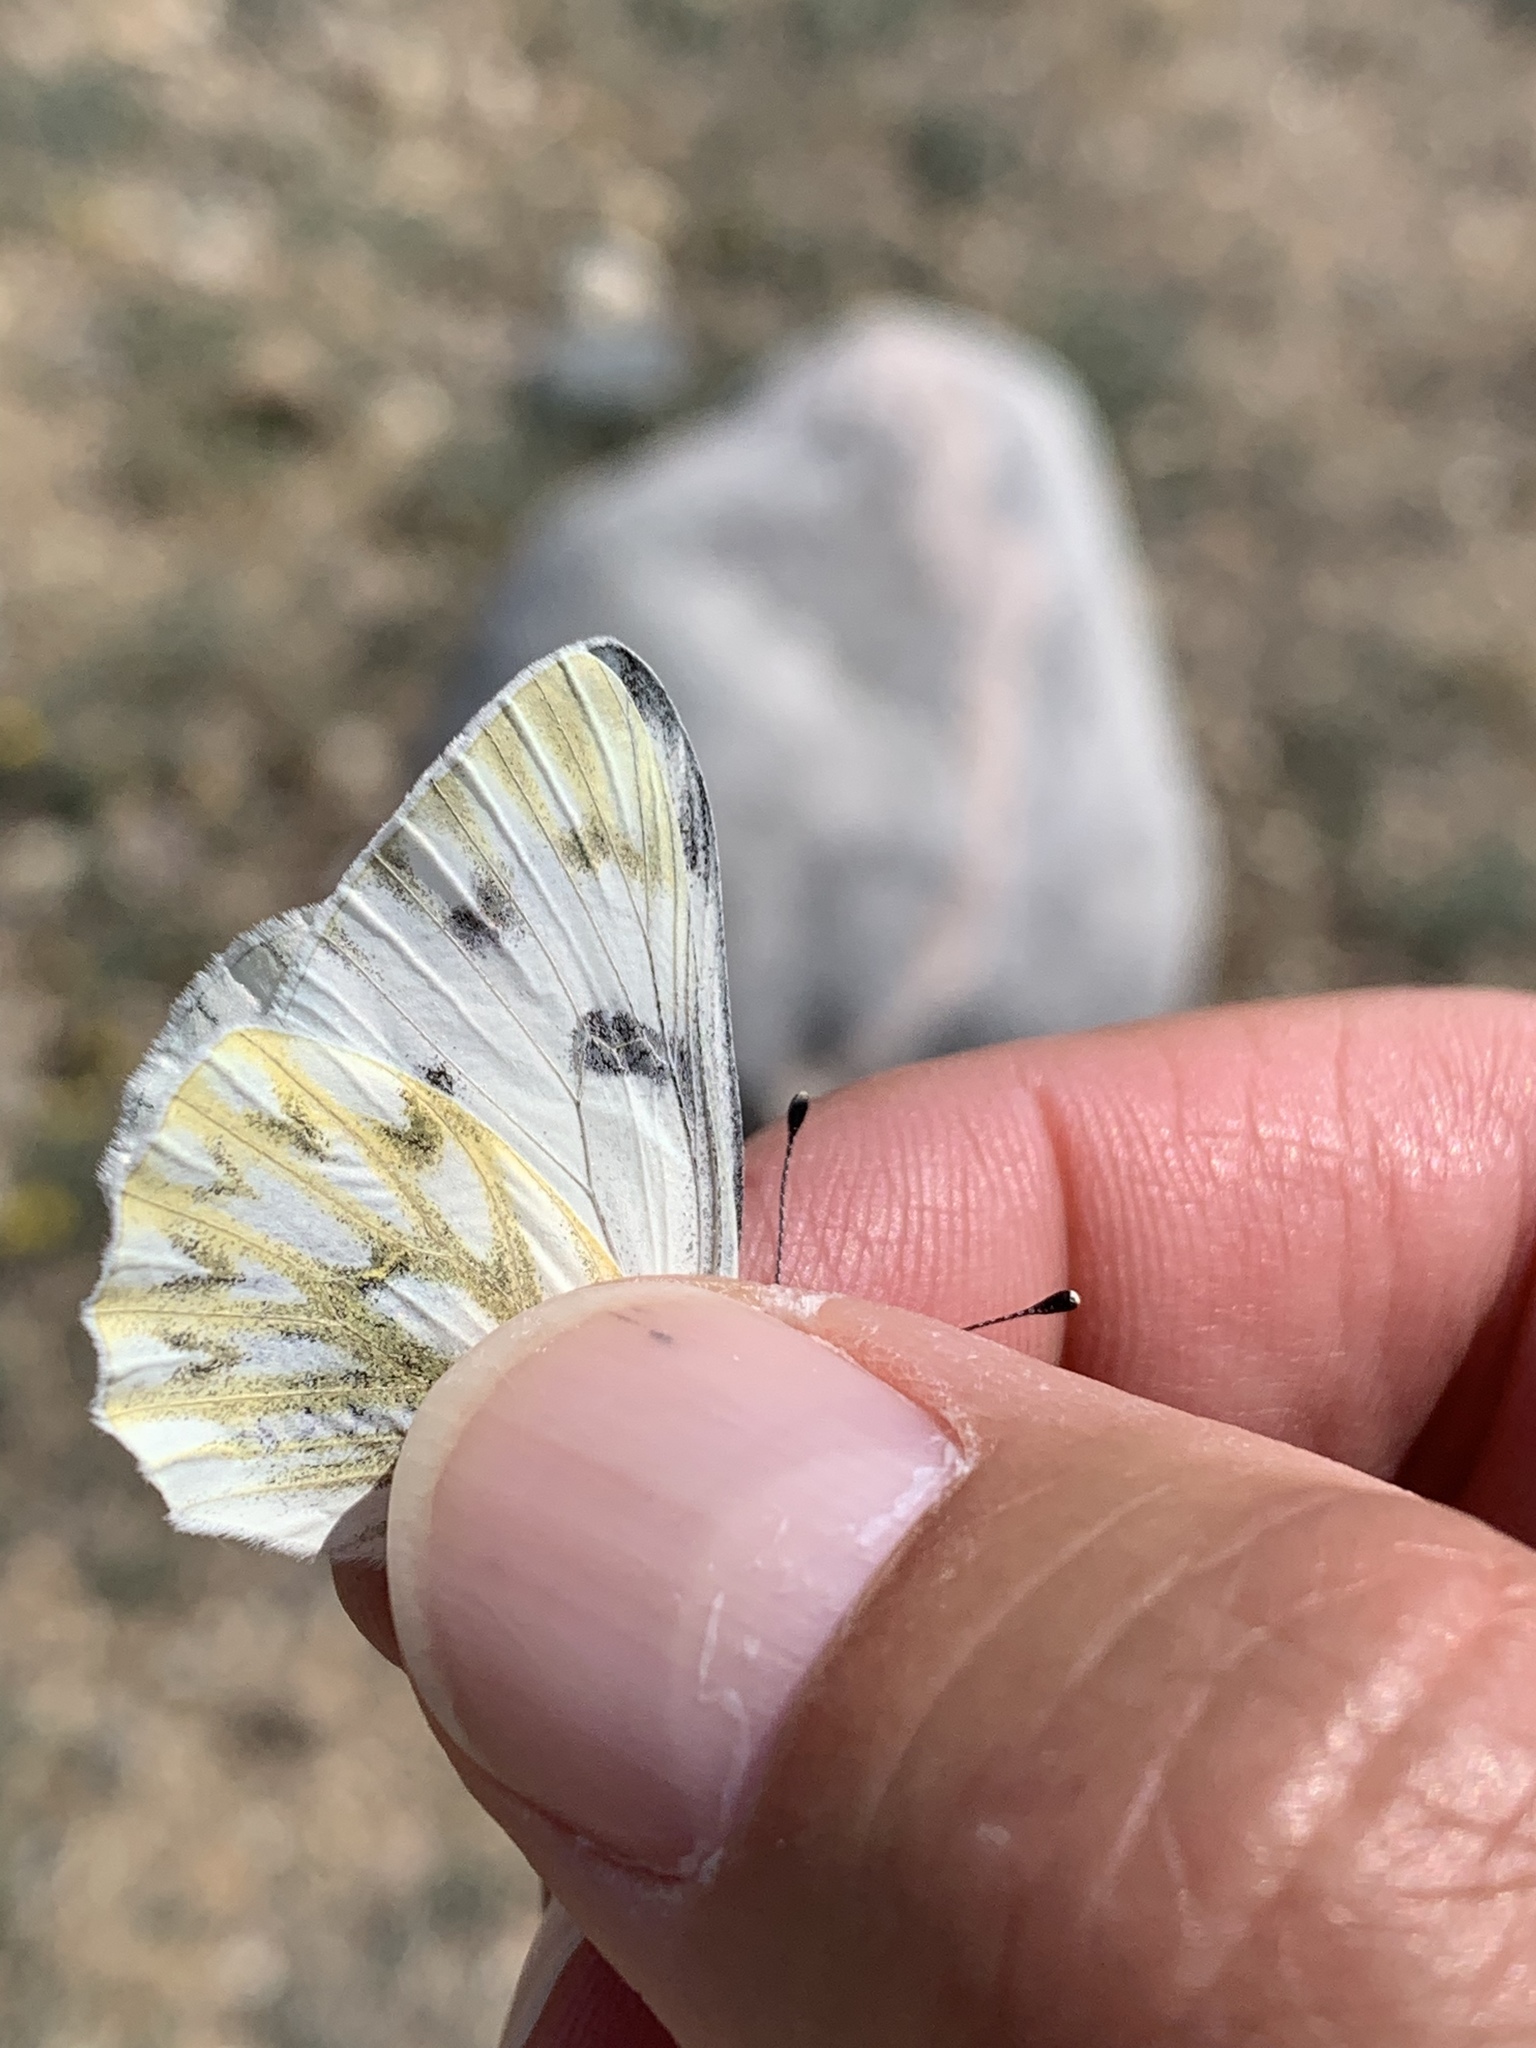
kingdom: Animalia
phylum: Arthropoda
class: Insecta
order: Lepidoptera
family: Pieridae
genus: Pontia
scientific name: Pontia occidentalis
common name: Western white
